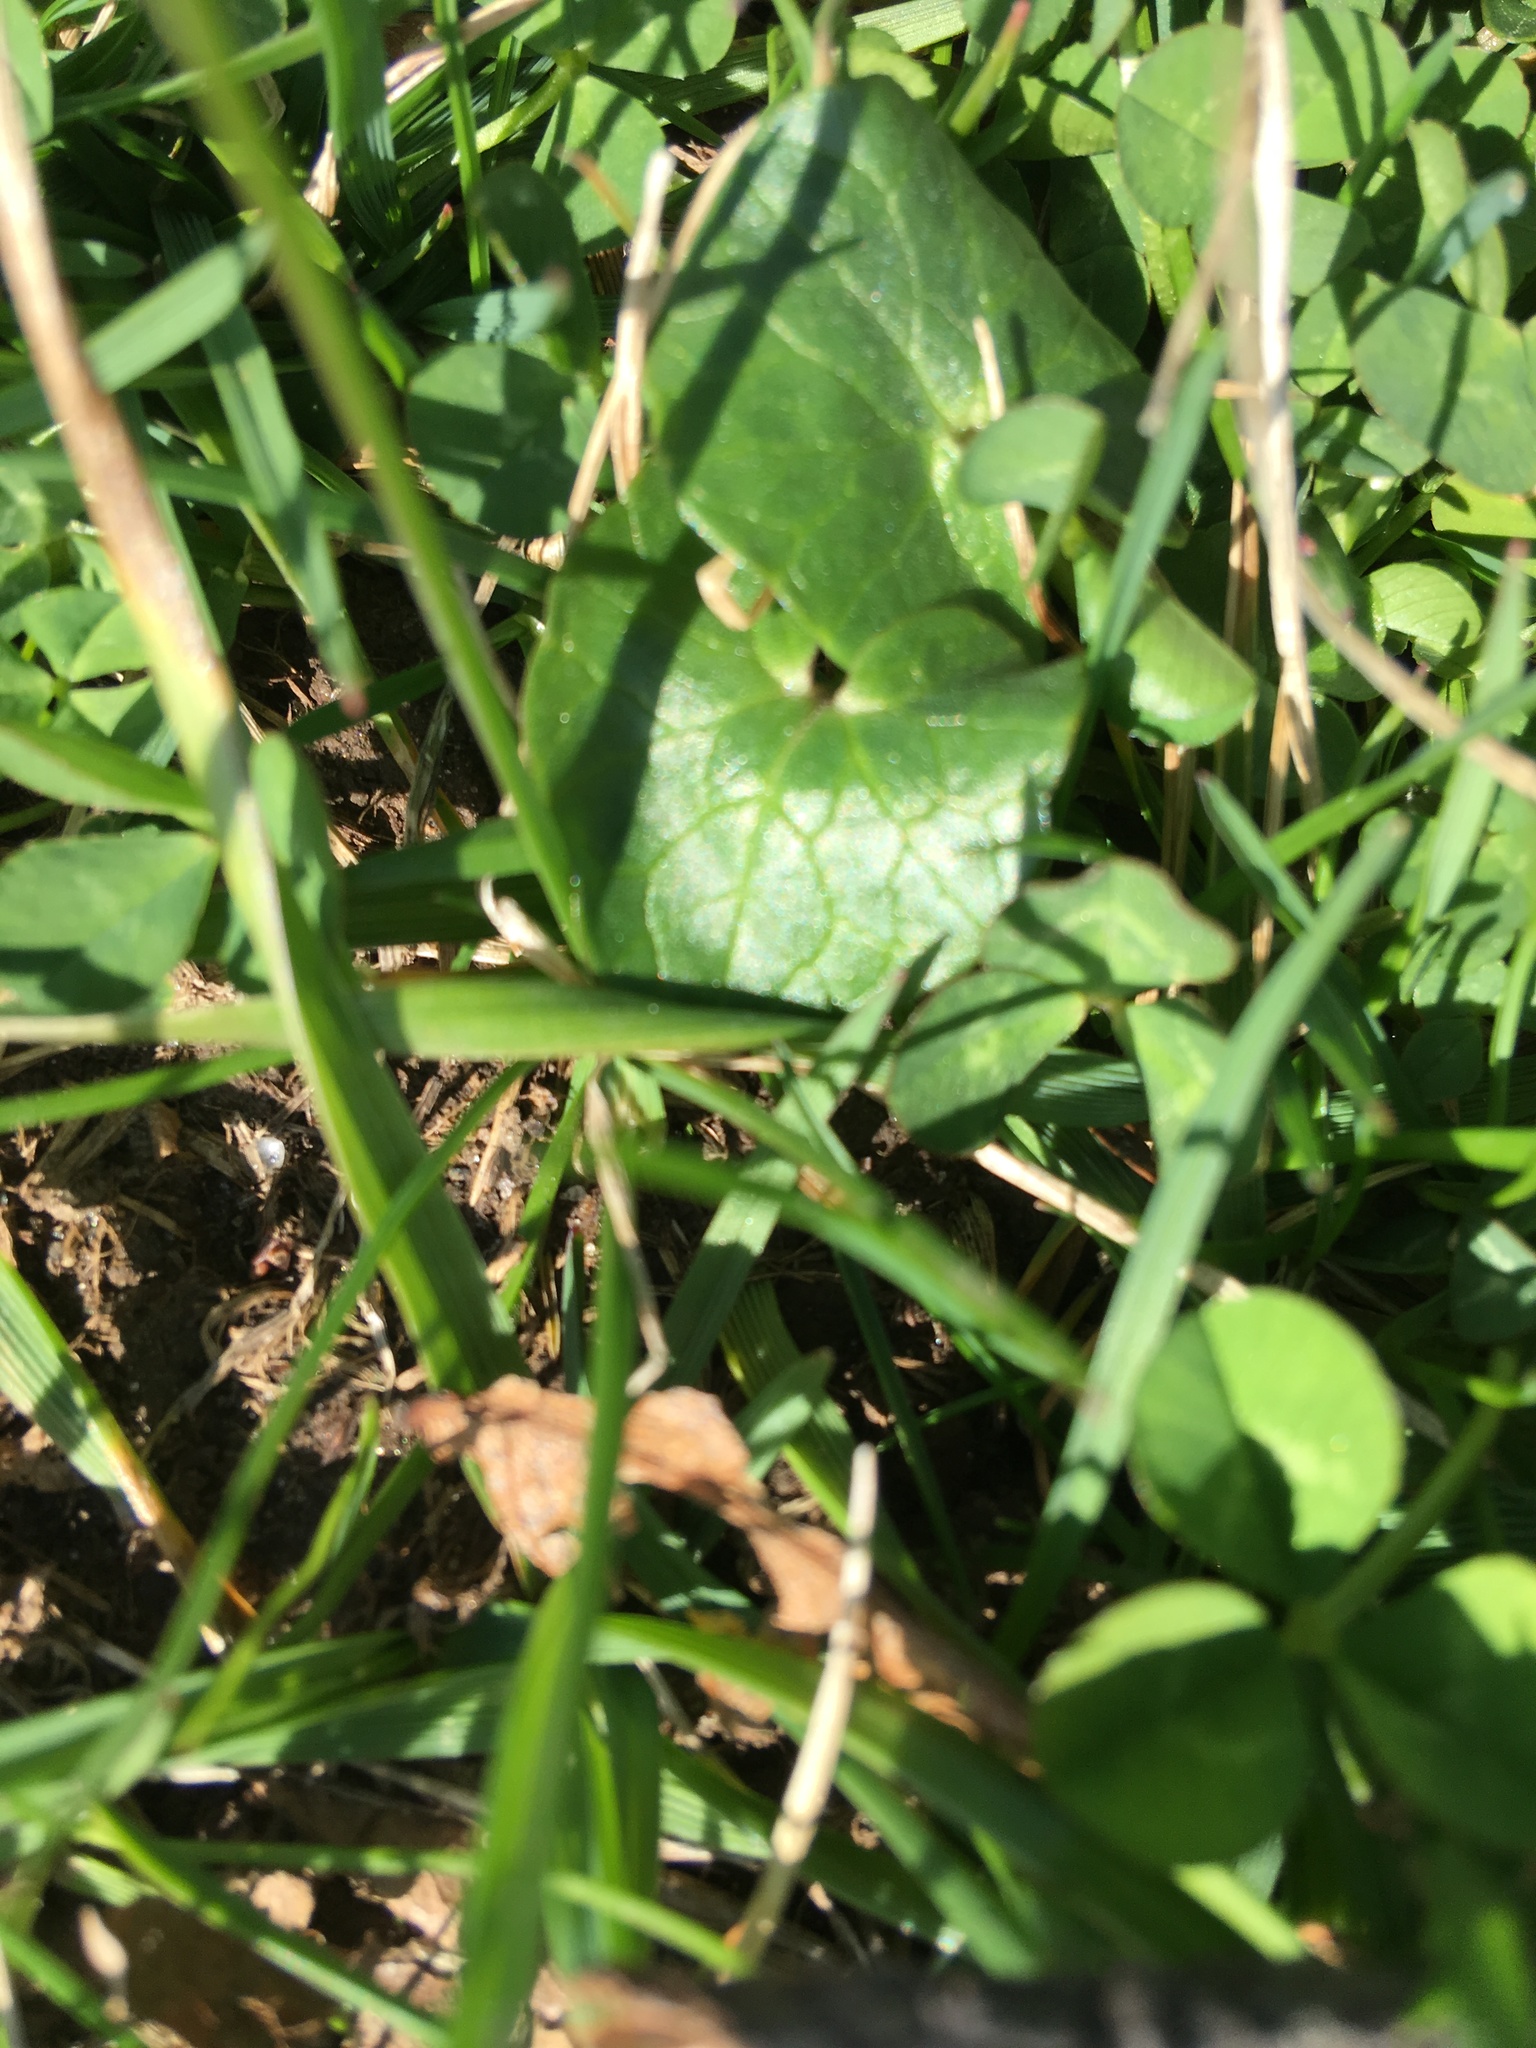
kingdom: Plantae
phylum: Tracheophyta
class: Magnoliopsida
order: Ranunculales
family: Ranunculaceae
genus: Ficaria
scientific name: Ficaria verna
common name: Lesser celandine
